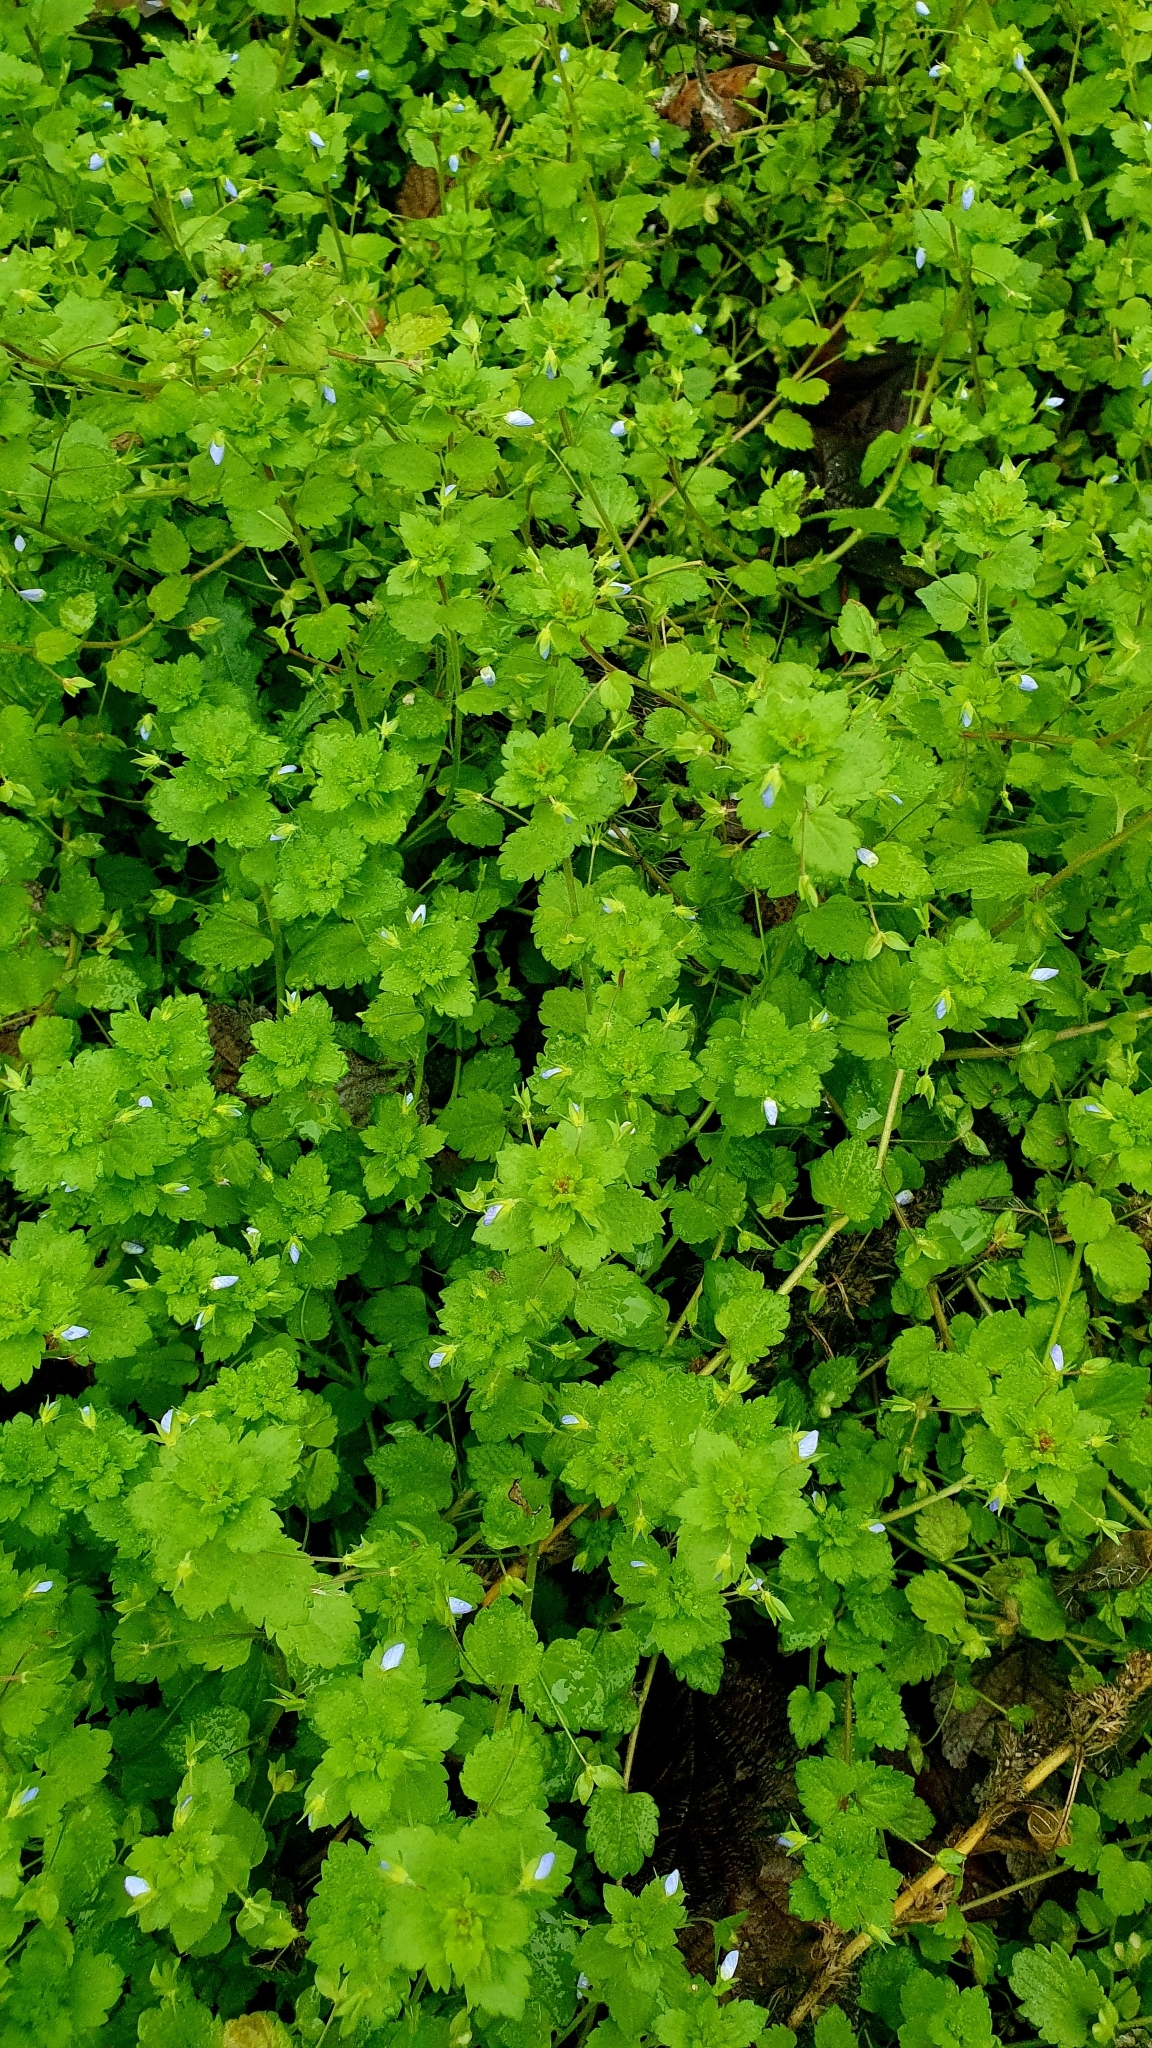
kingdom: Plantae
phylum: Tracheophyta
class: Magnoliopsida
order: Lamiales
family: Plantaginaceae
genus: Veronica
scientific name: Veronica persica
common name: Common field-speedwell
